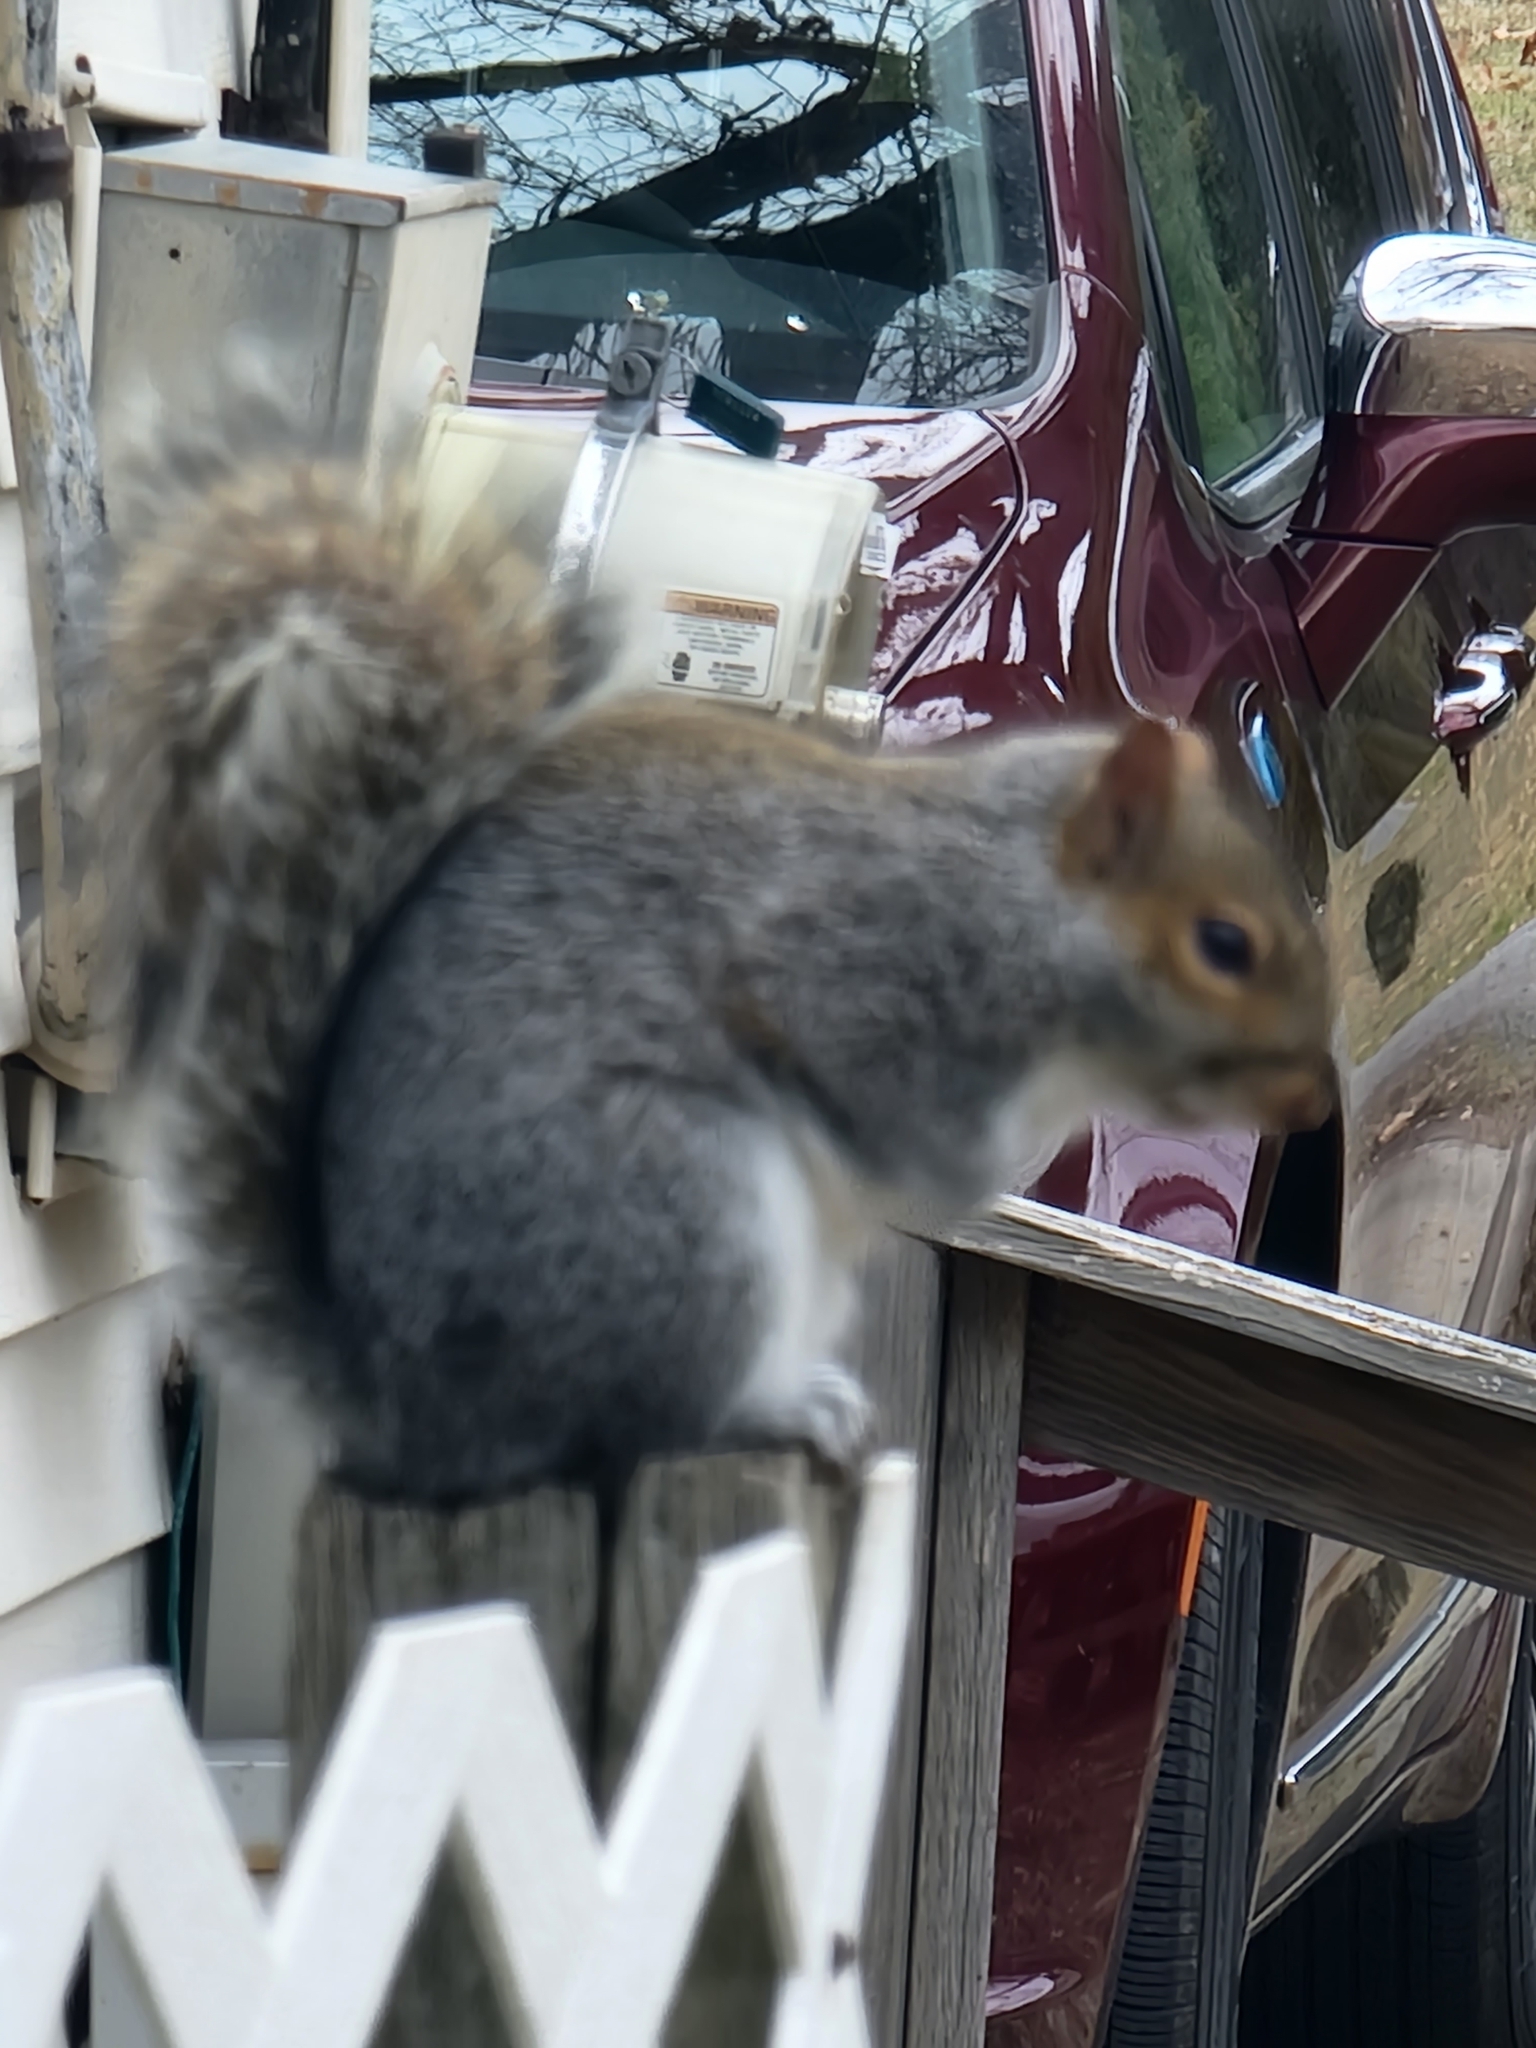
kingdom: Animalia
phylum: Chordata
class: Mammalia
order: Rodentia
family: Sciuridae
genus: Sciurus
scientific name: Sciurus carolinensis
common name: Eastern gray squirrel
